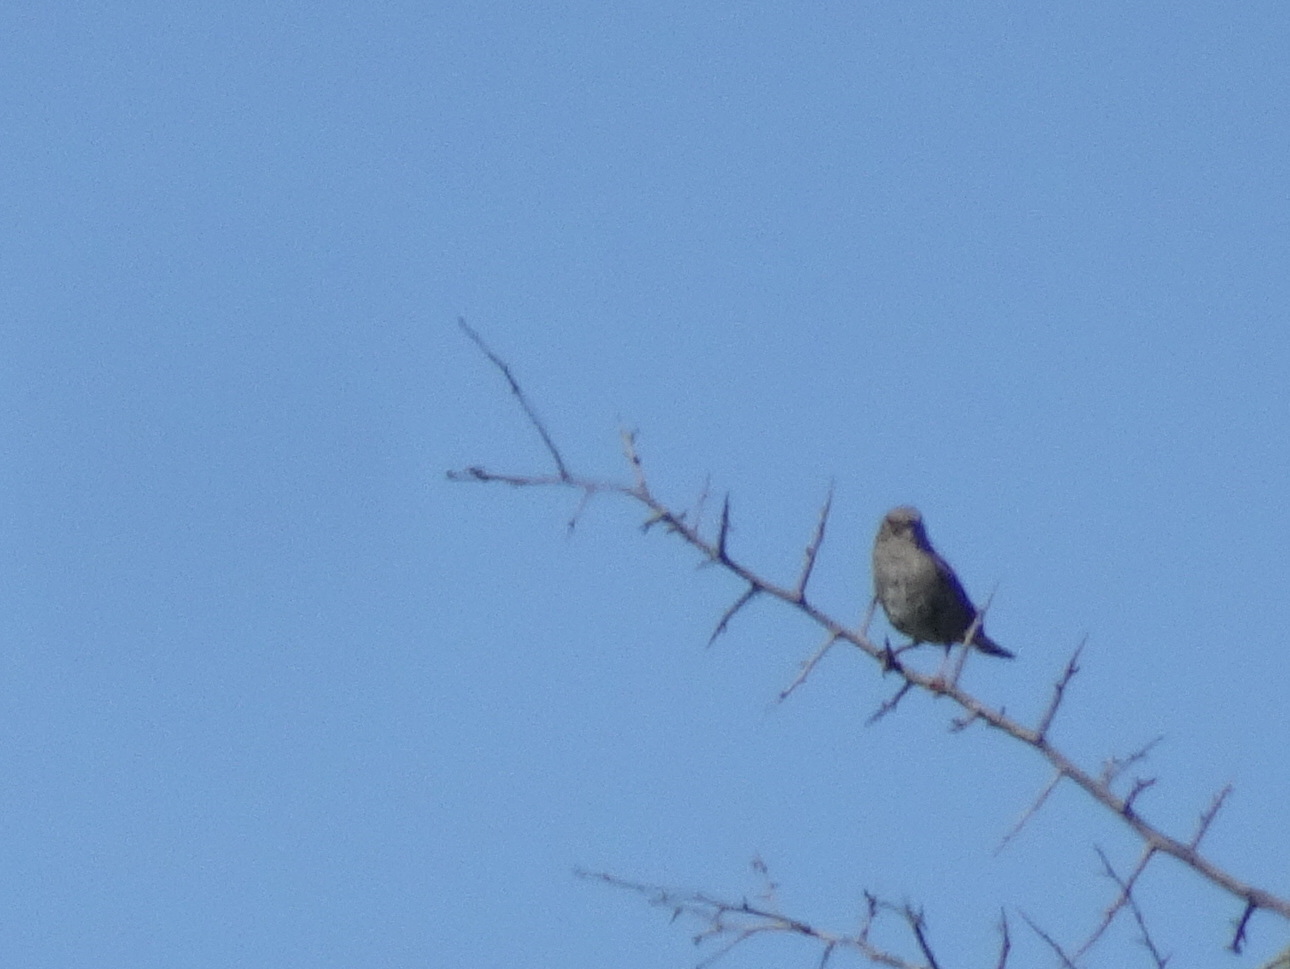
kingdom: Animalia
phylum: Chordata
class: Aves
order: Passeriformes
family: Prunellidae
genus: Prunella
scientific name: Prunella modularis
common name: Dunnock
